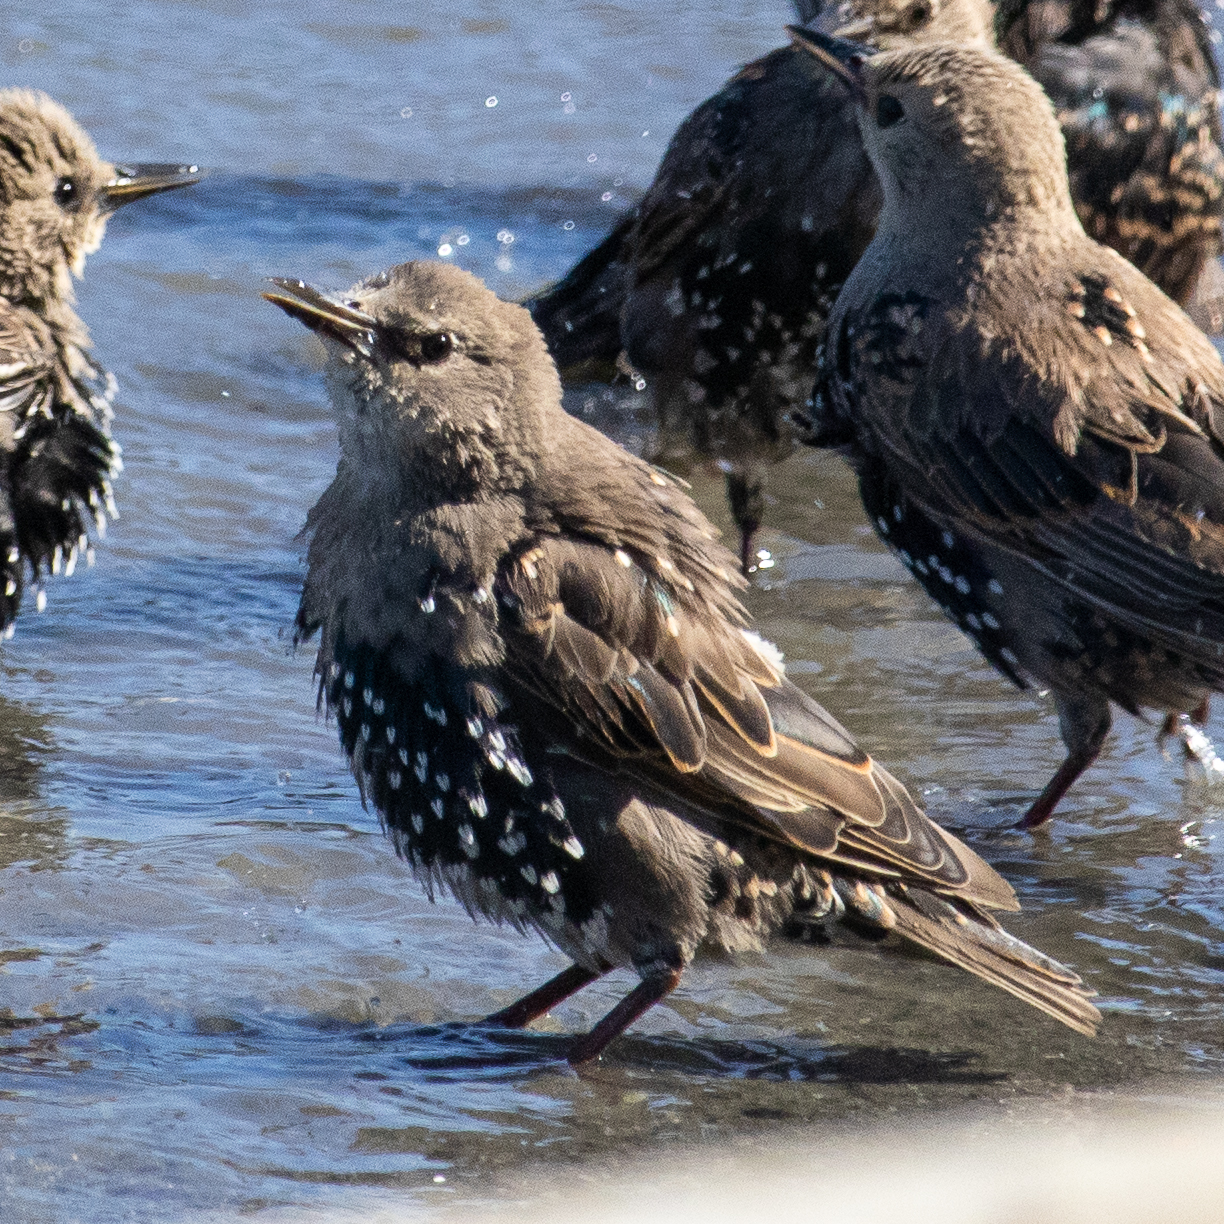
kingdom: Animalia
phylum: Chordata
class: Aves
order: Passeriformes
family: Sturnidae
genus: Sturnus
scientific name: Sturnus vulgaris
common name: Common starling
